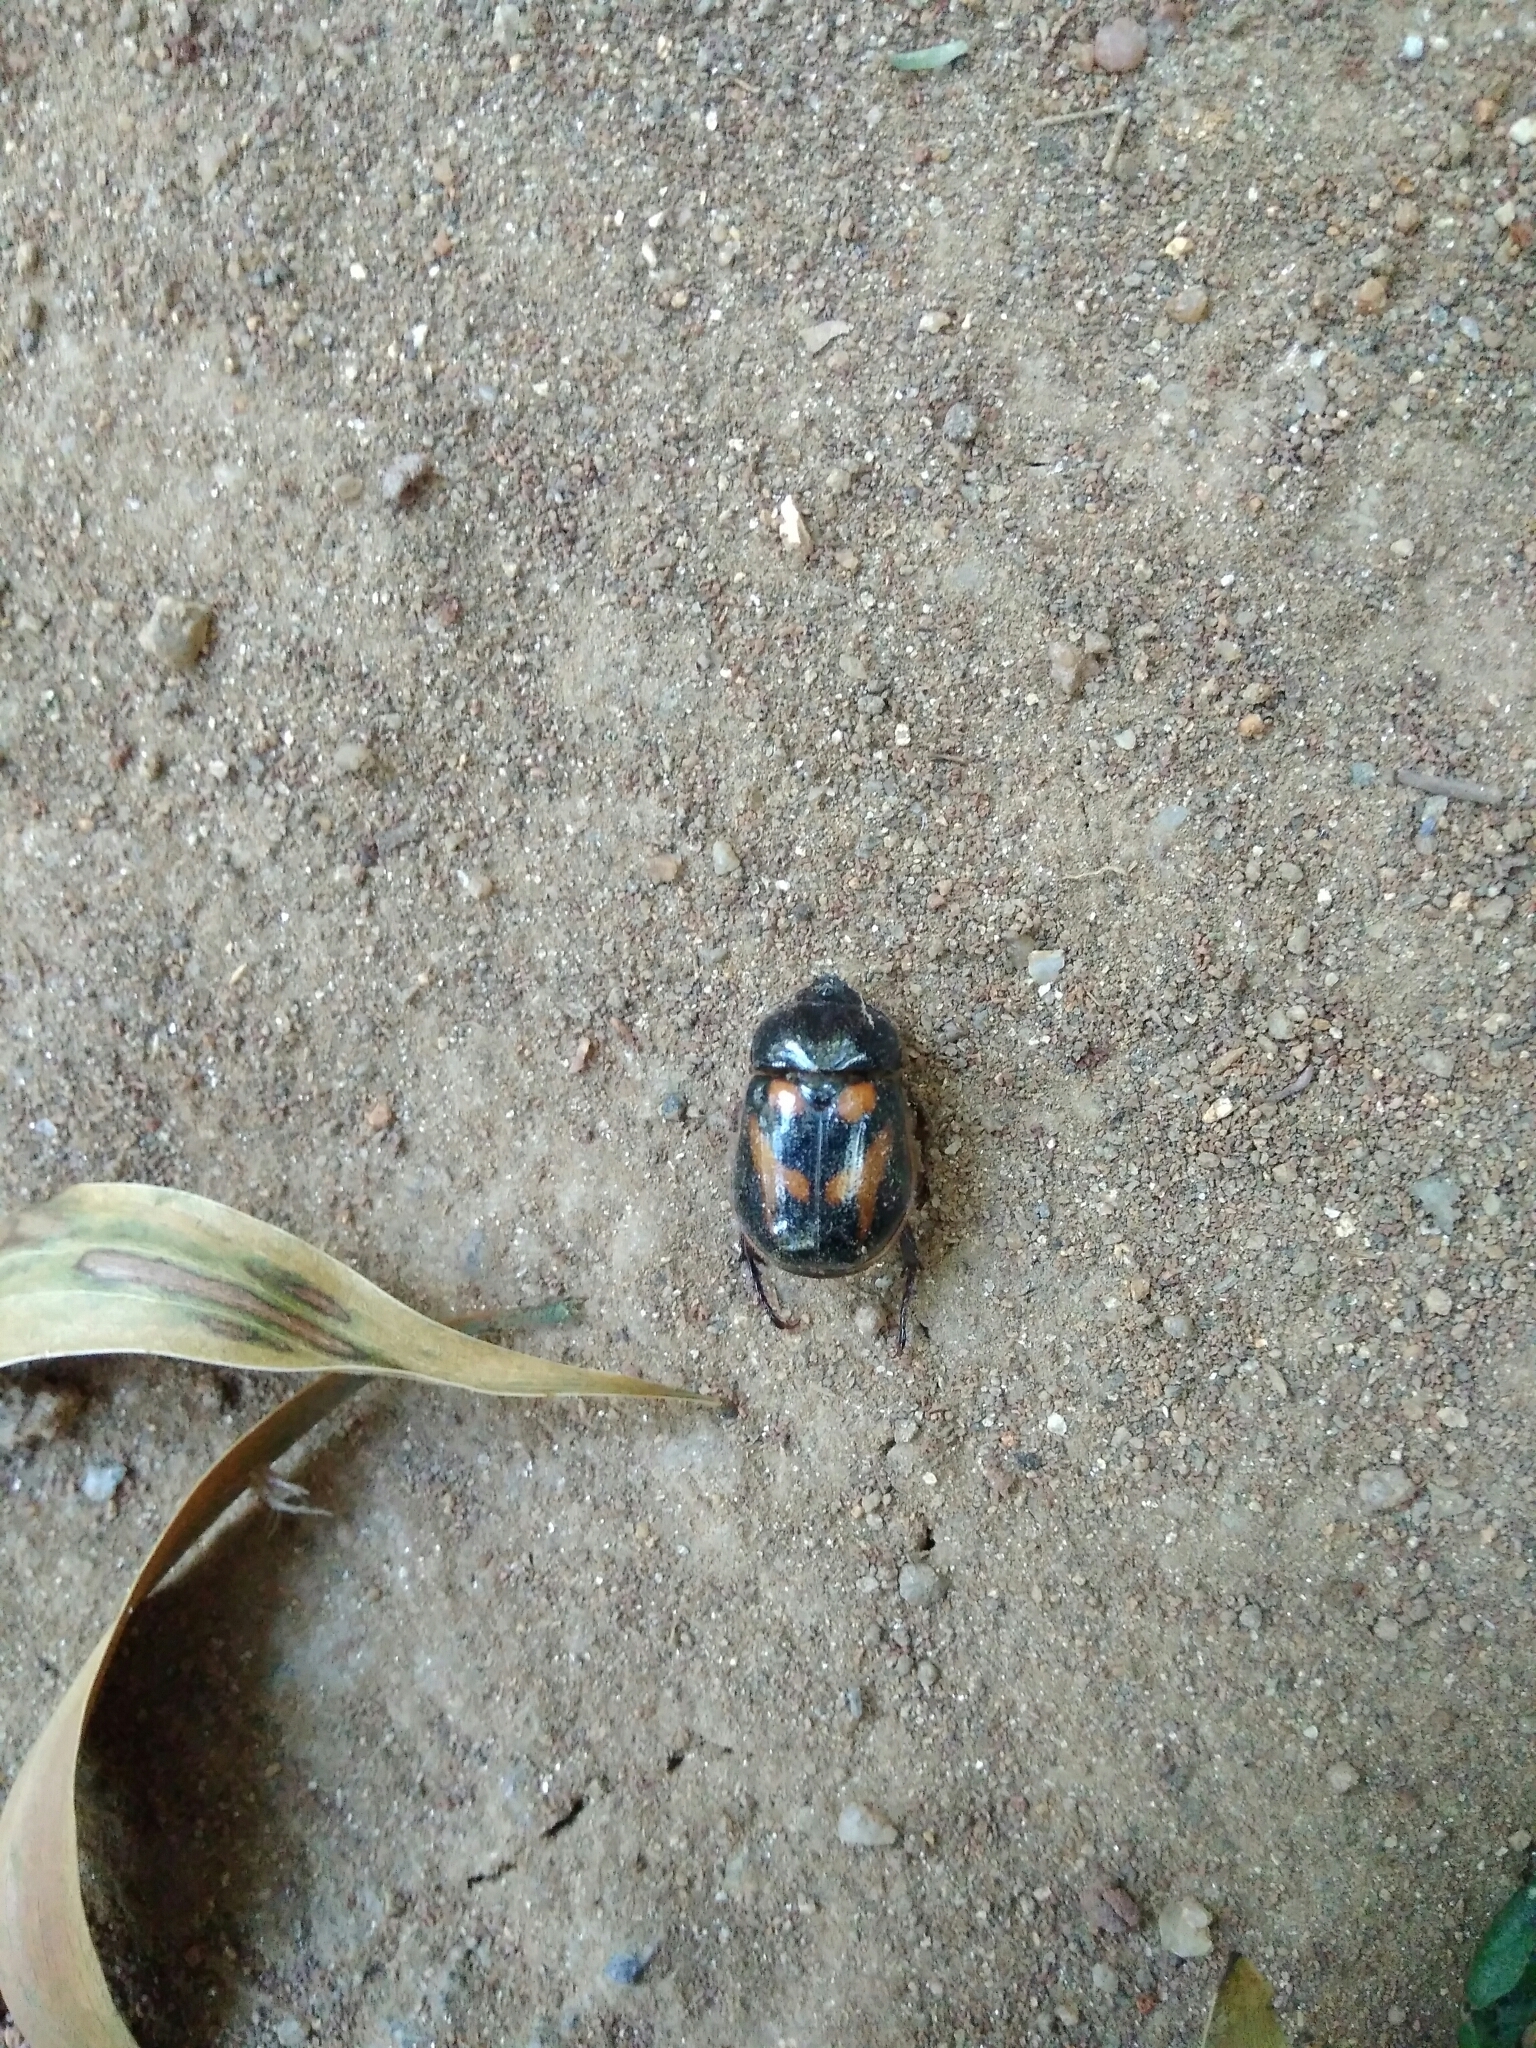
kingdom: Animalia
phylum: Arthropoda
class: Insecta
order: Coleoptera
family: Scarabaeidae
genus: Oryctomorphus
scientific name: Oryctomorphus bimaculatus
